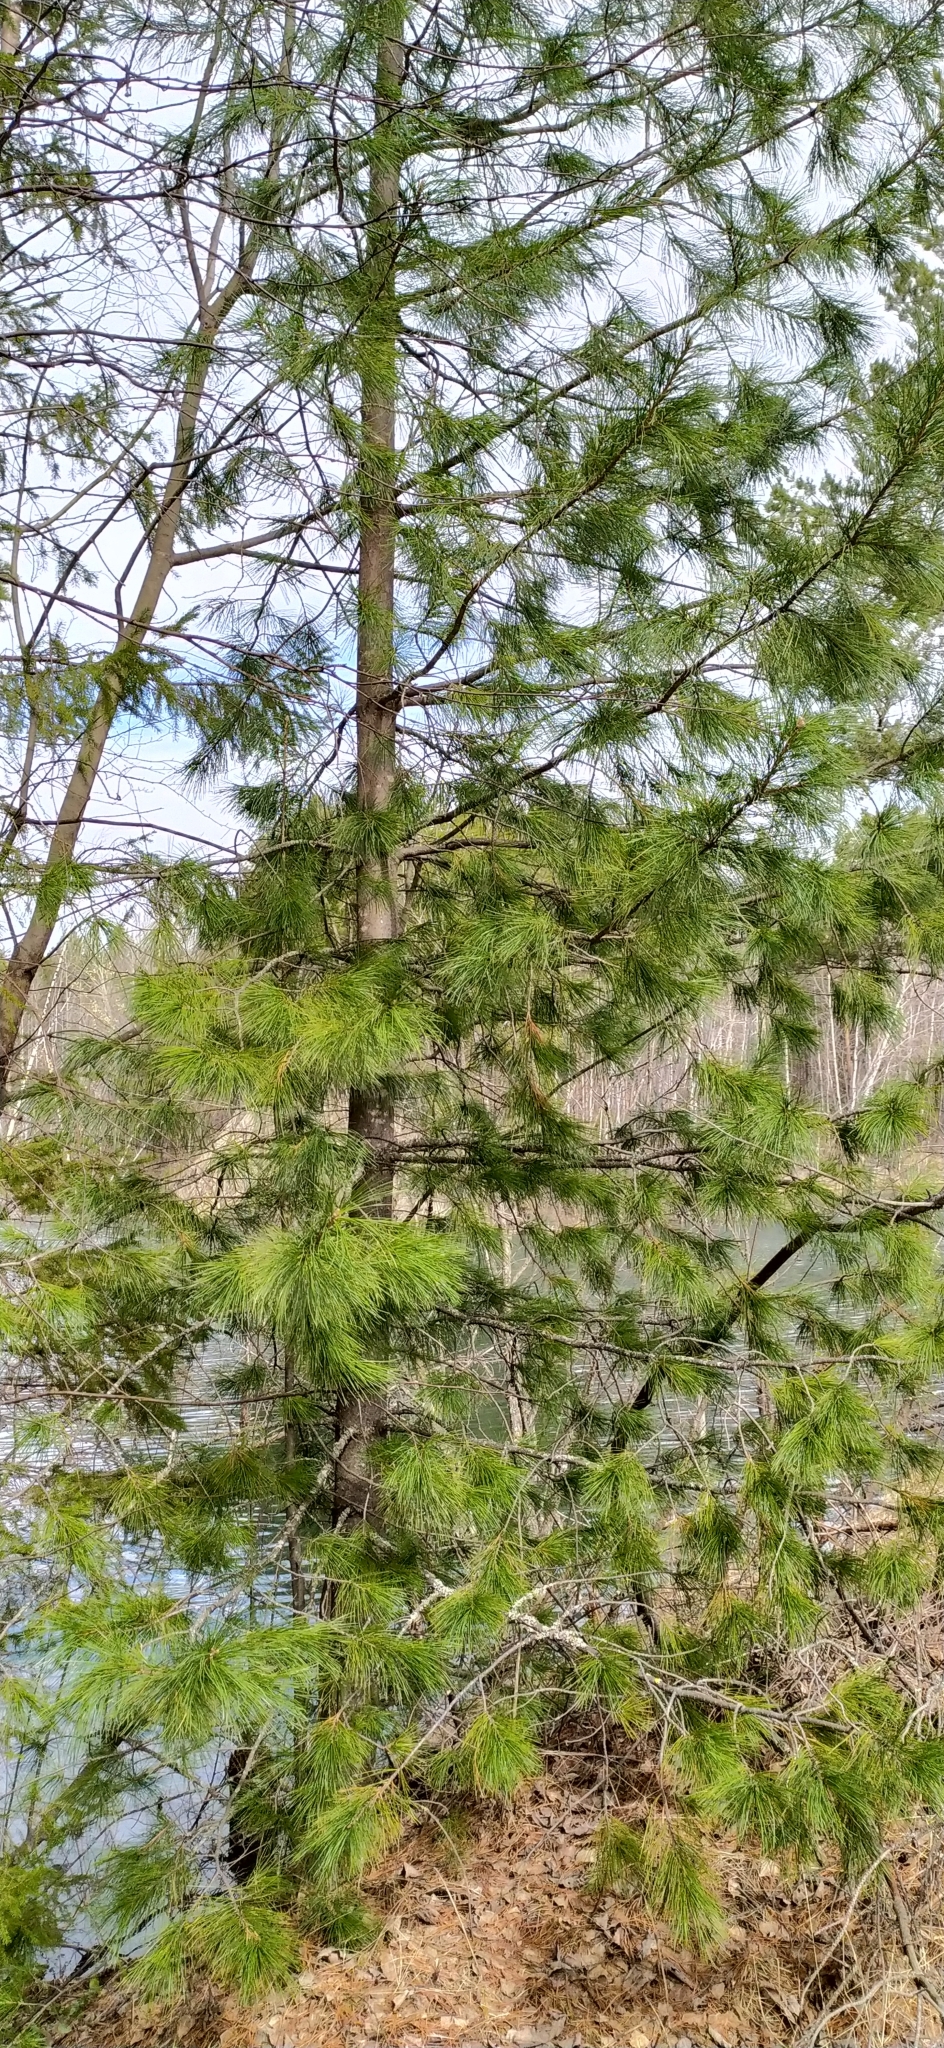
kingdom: Plantae
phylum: Tracheophyta
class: Pinopsida
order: Pinales
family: Pinaceae
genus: Pinus
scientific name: Pinus sibirica
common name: Siberian pine
